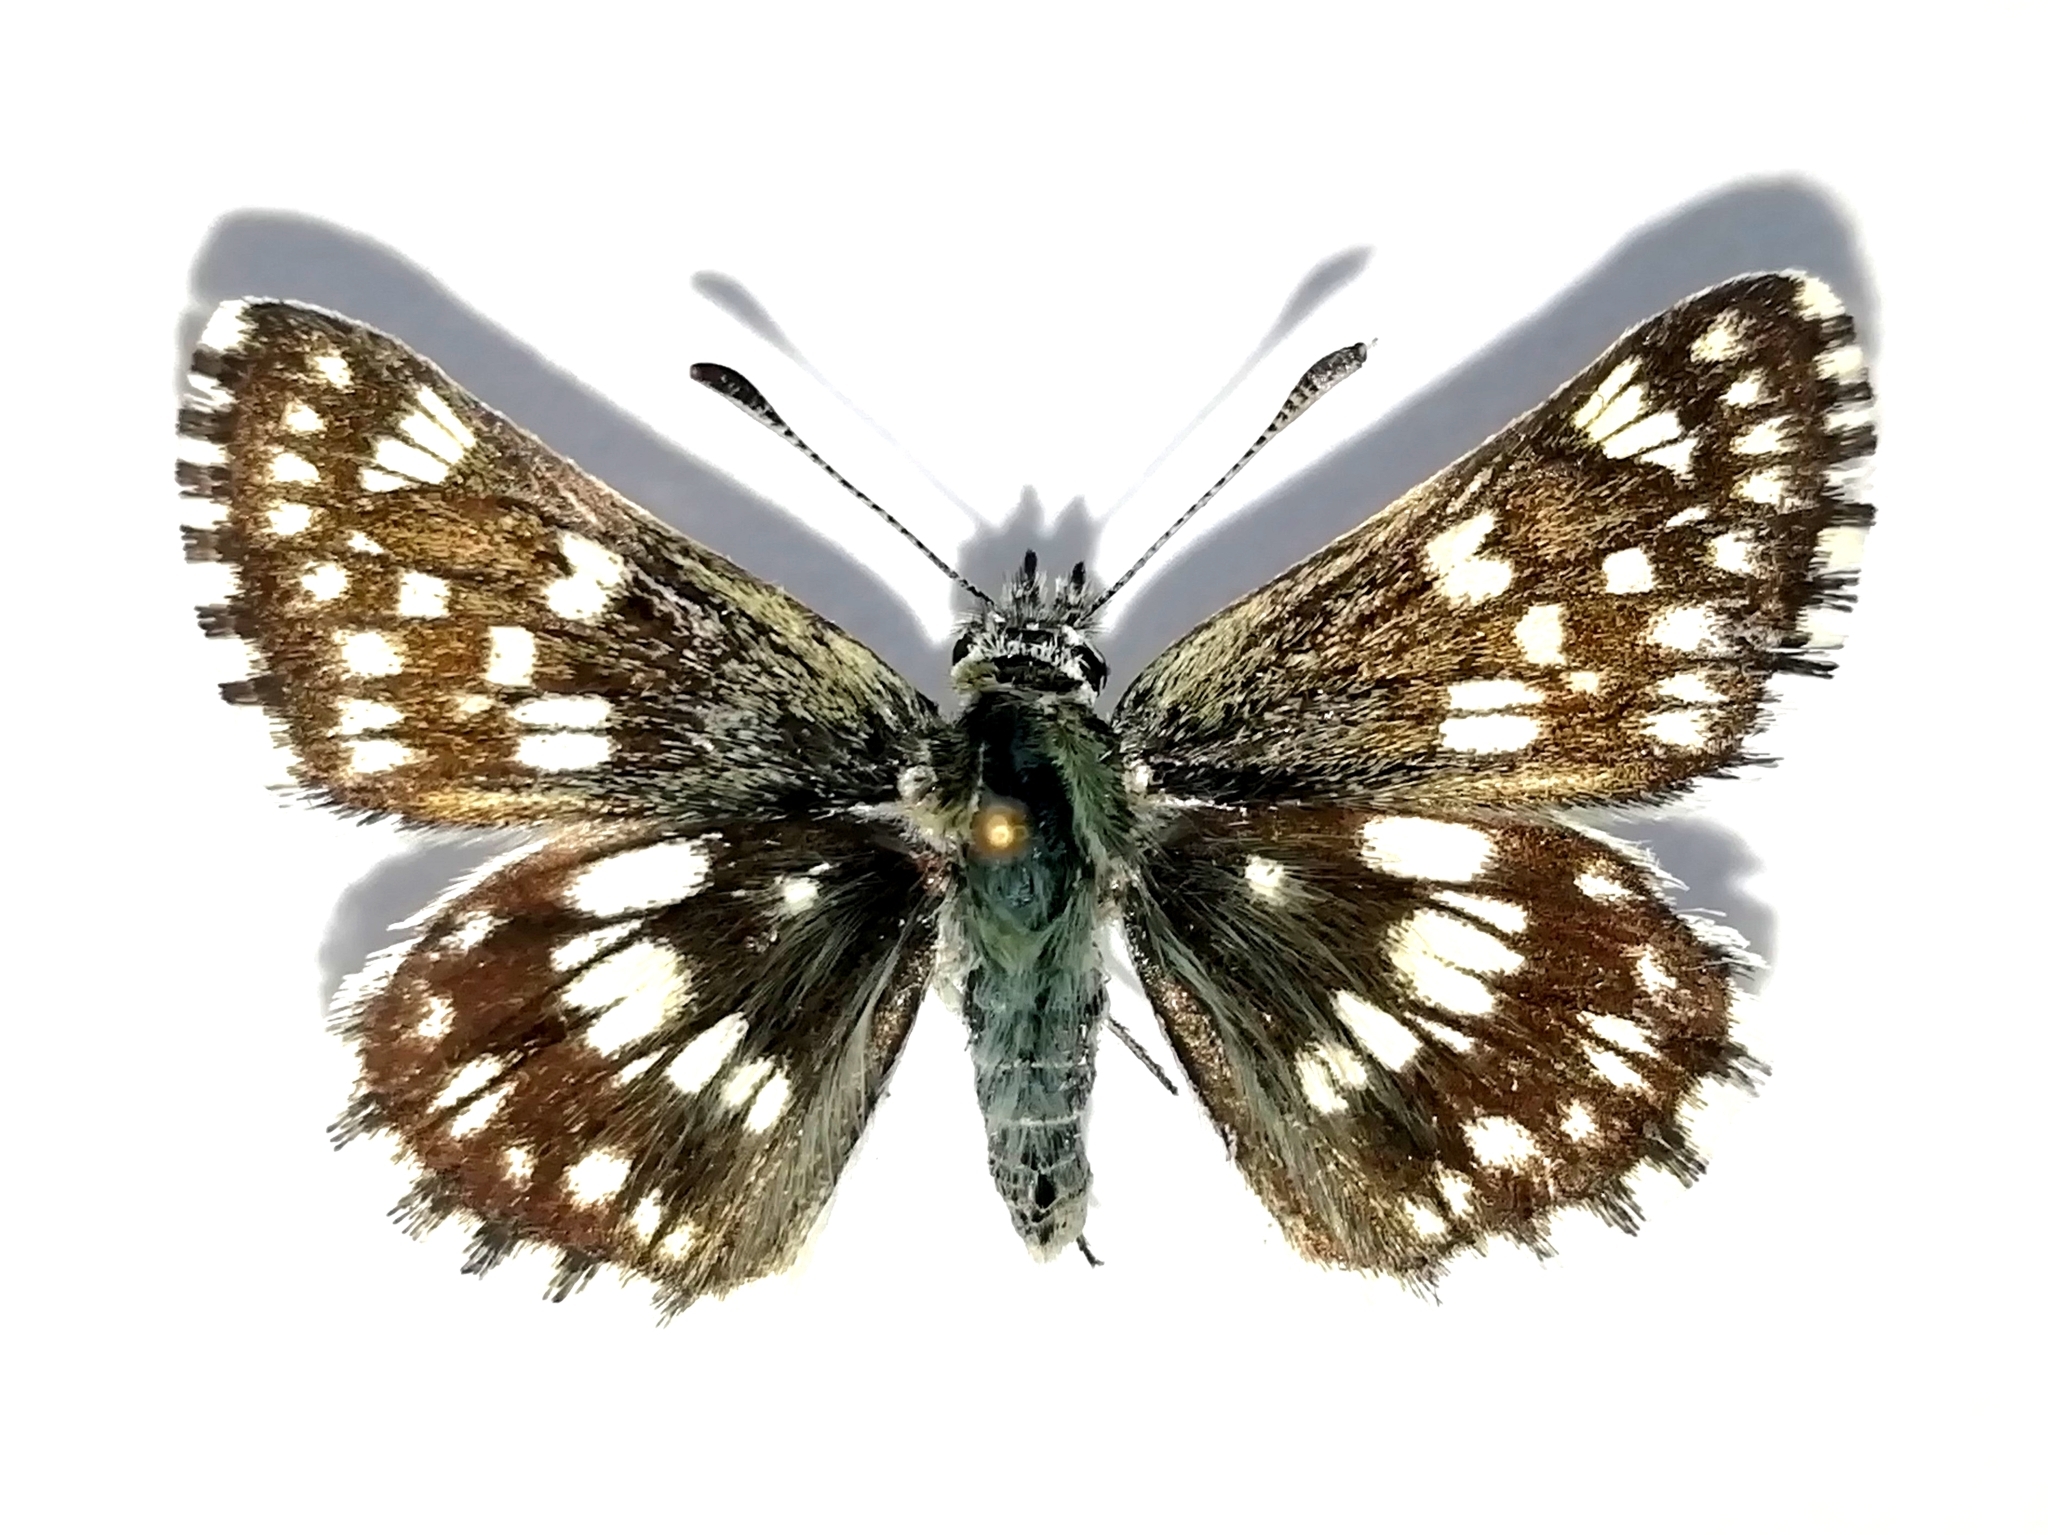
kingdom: Animalia
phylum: Arthropoda
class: Insecta
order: Lepidoptera
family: Hesperiidae
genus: Syrichtus
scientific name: Syrichtus cribrellum
